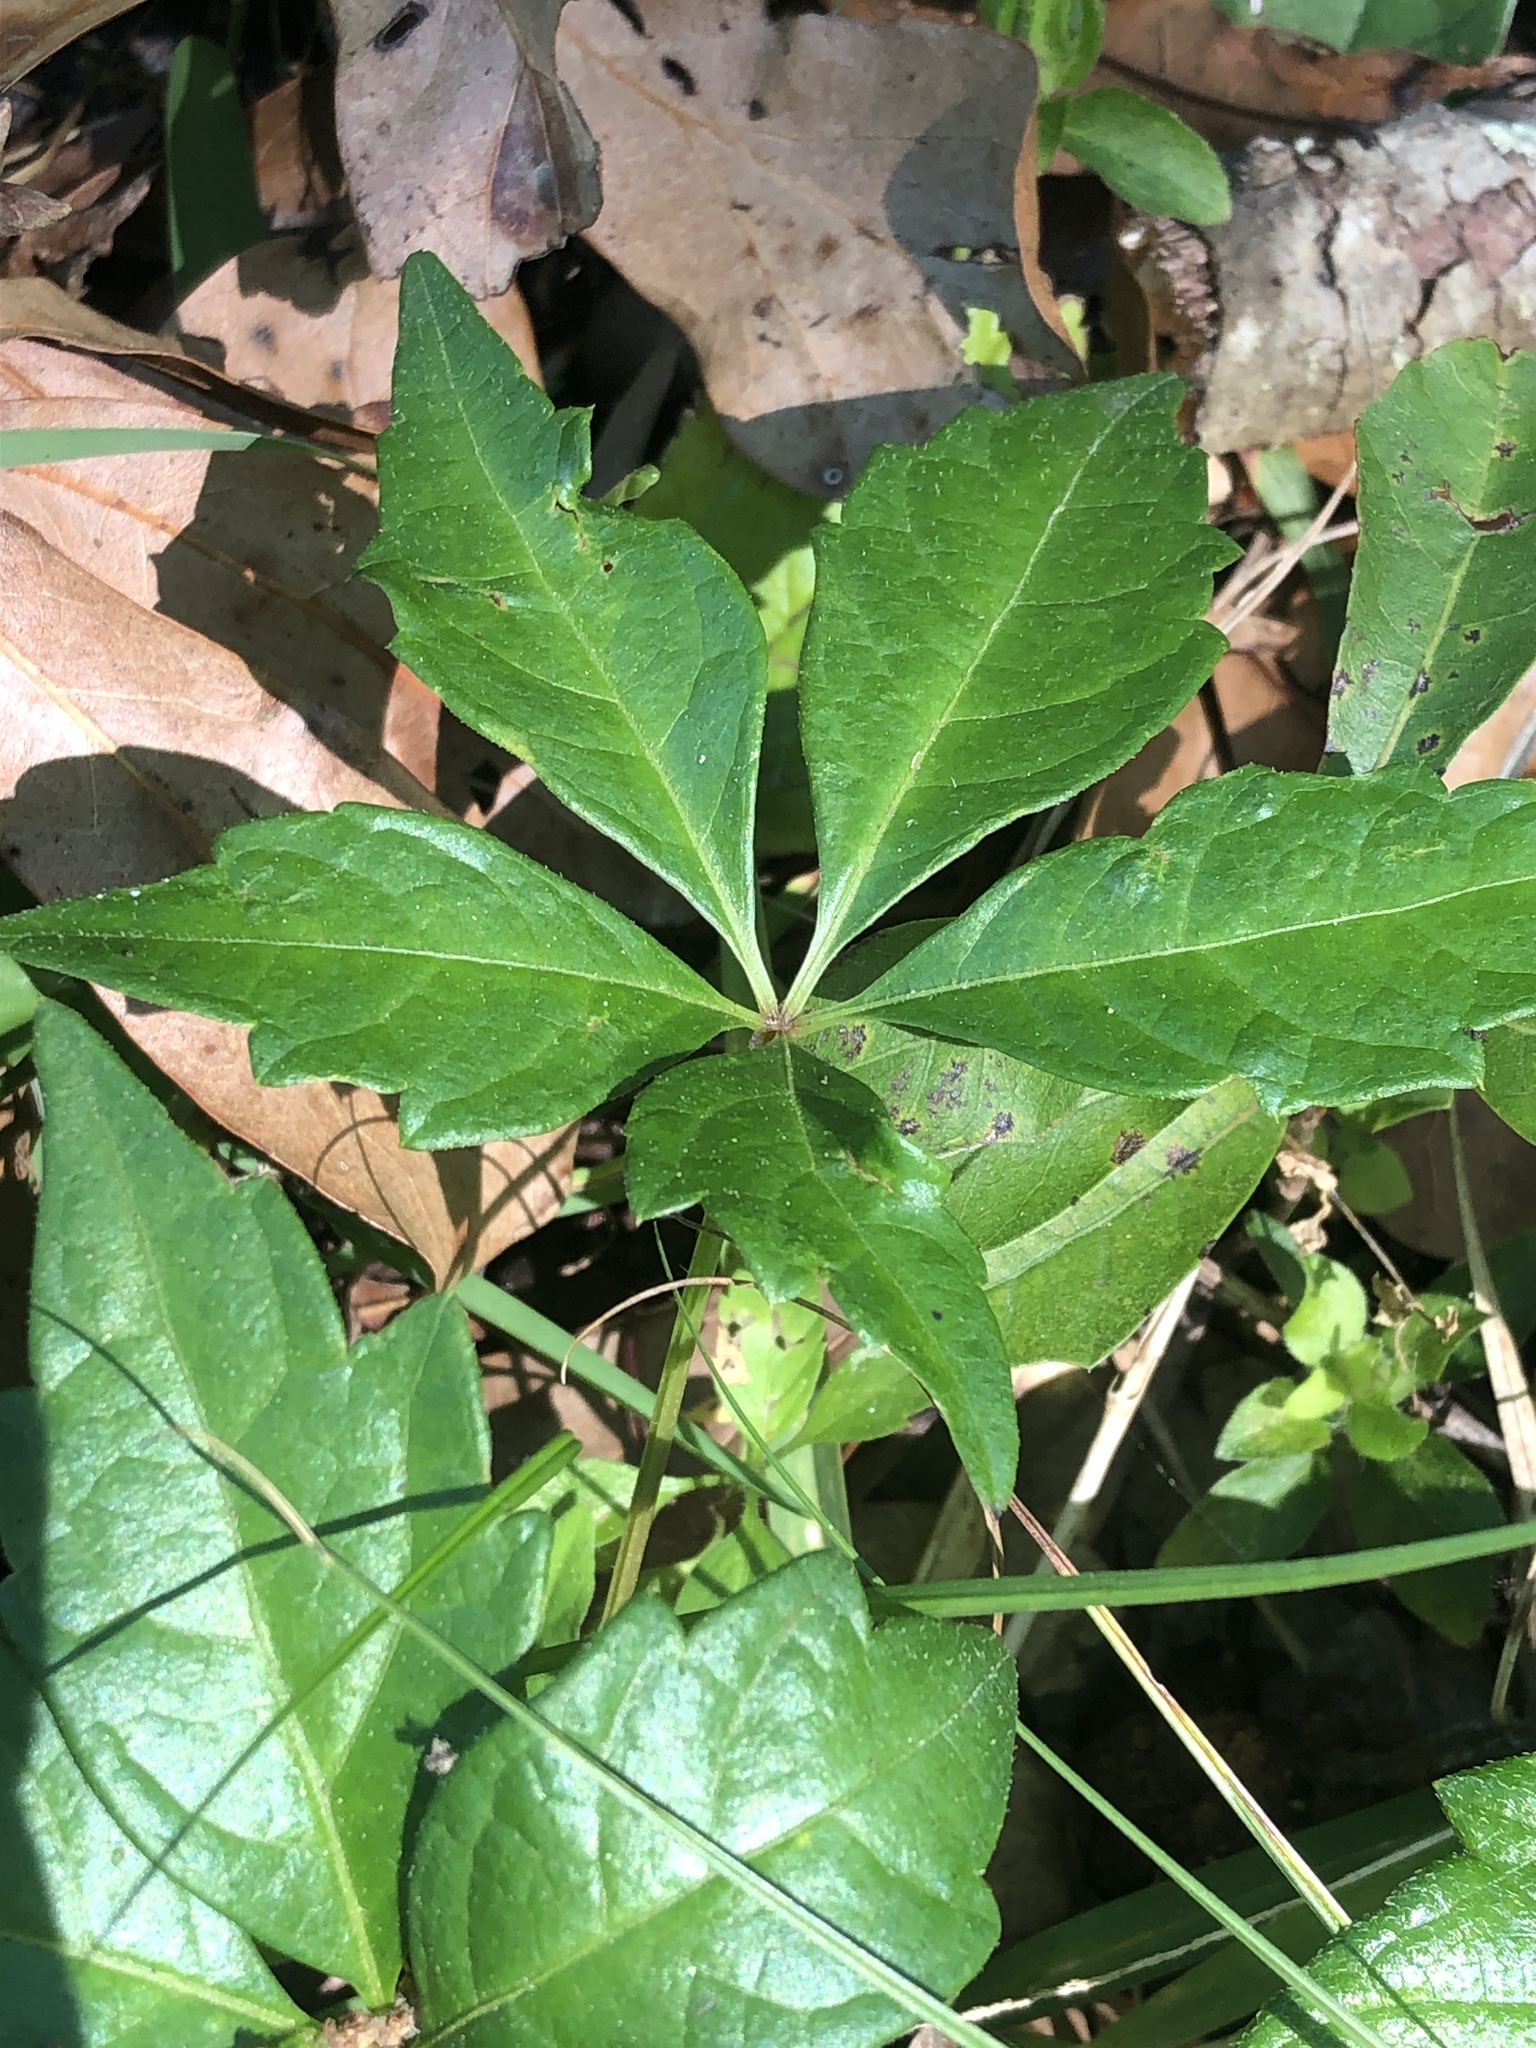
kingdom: Plantae
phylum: Tracheophyta
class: Magnoliopsida
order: Vitales
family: Vitaceae
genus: Parthenocissus
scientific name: Parthenocissus quinquefolia
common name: Virginia-creeper
